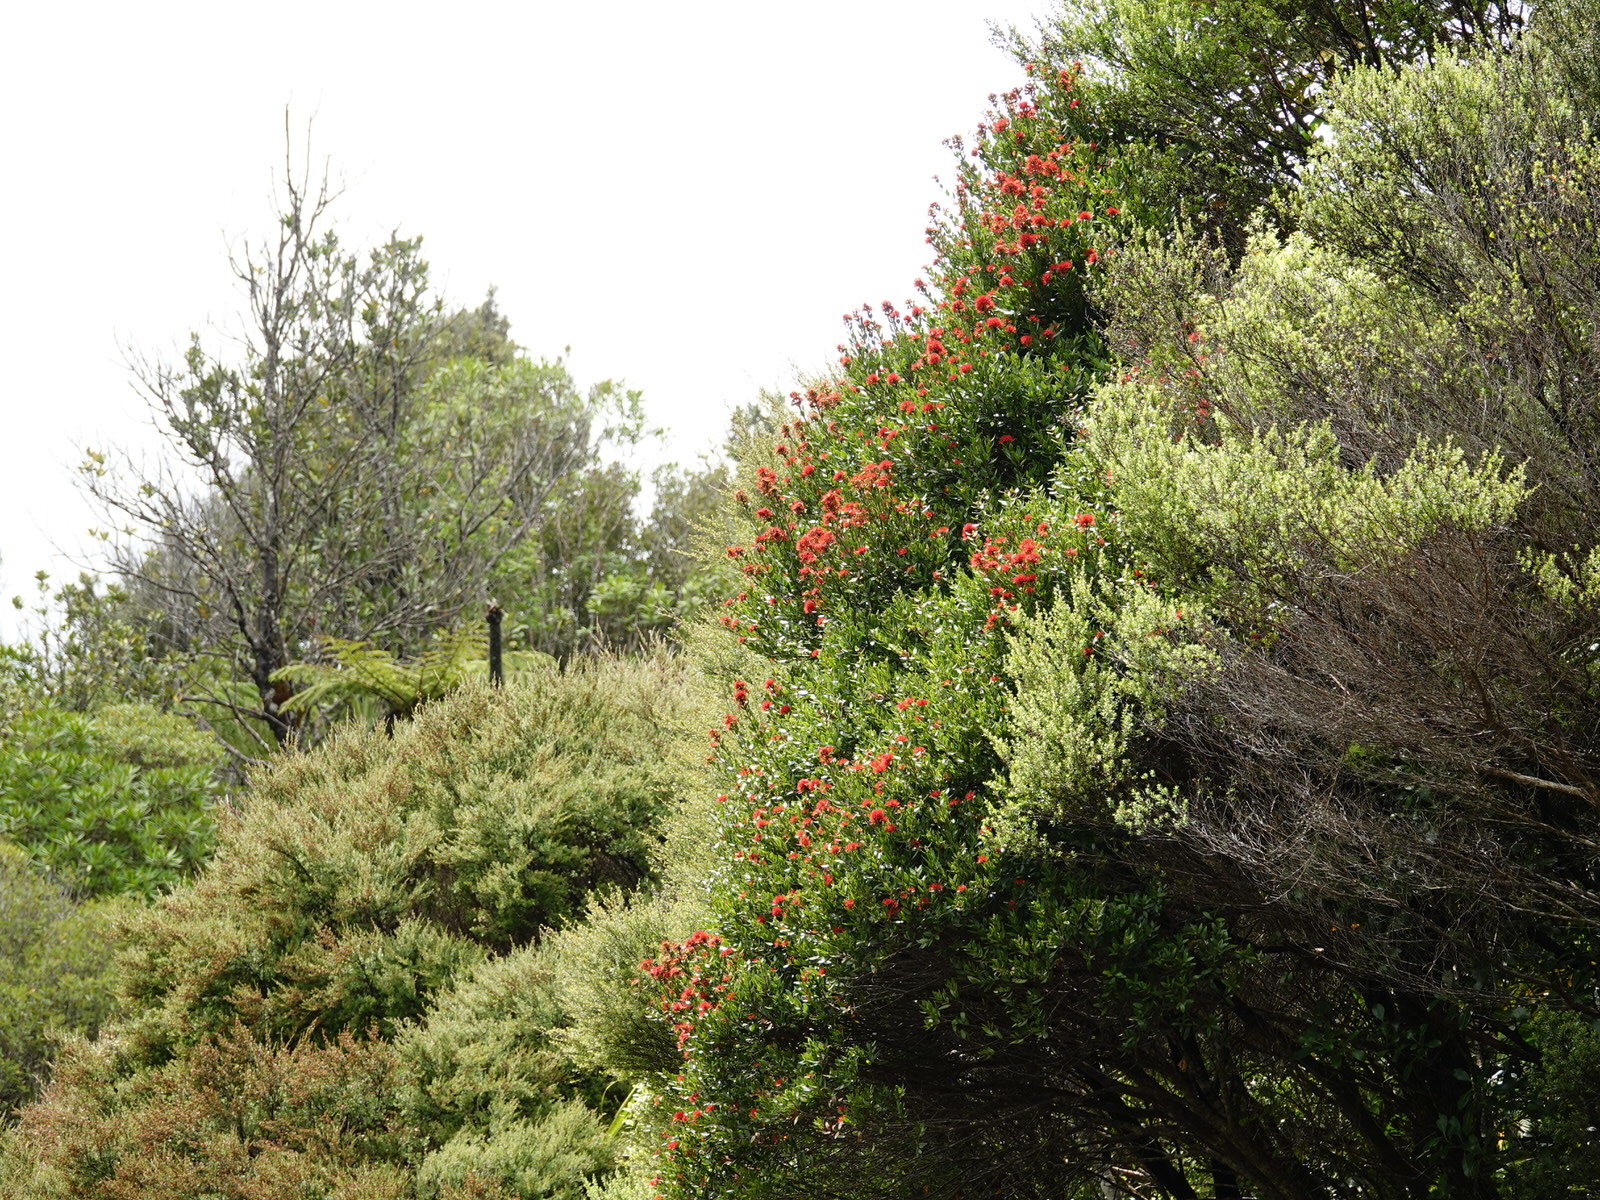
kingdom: Plantae
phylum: Tracheophyta
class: Magnoliopsida
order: Myrtales
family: Myrtaceae
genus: Metrosideros
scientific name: Metrosideros robusta
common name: Northern rata
